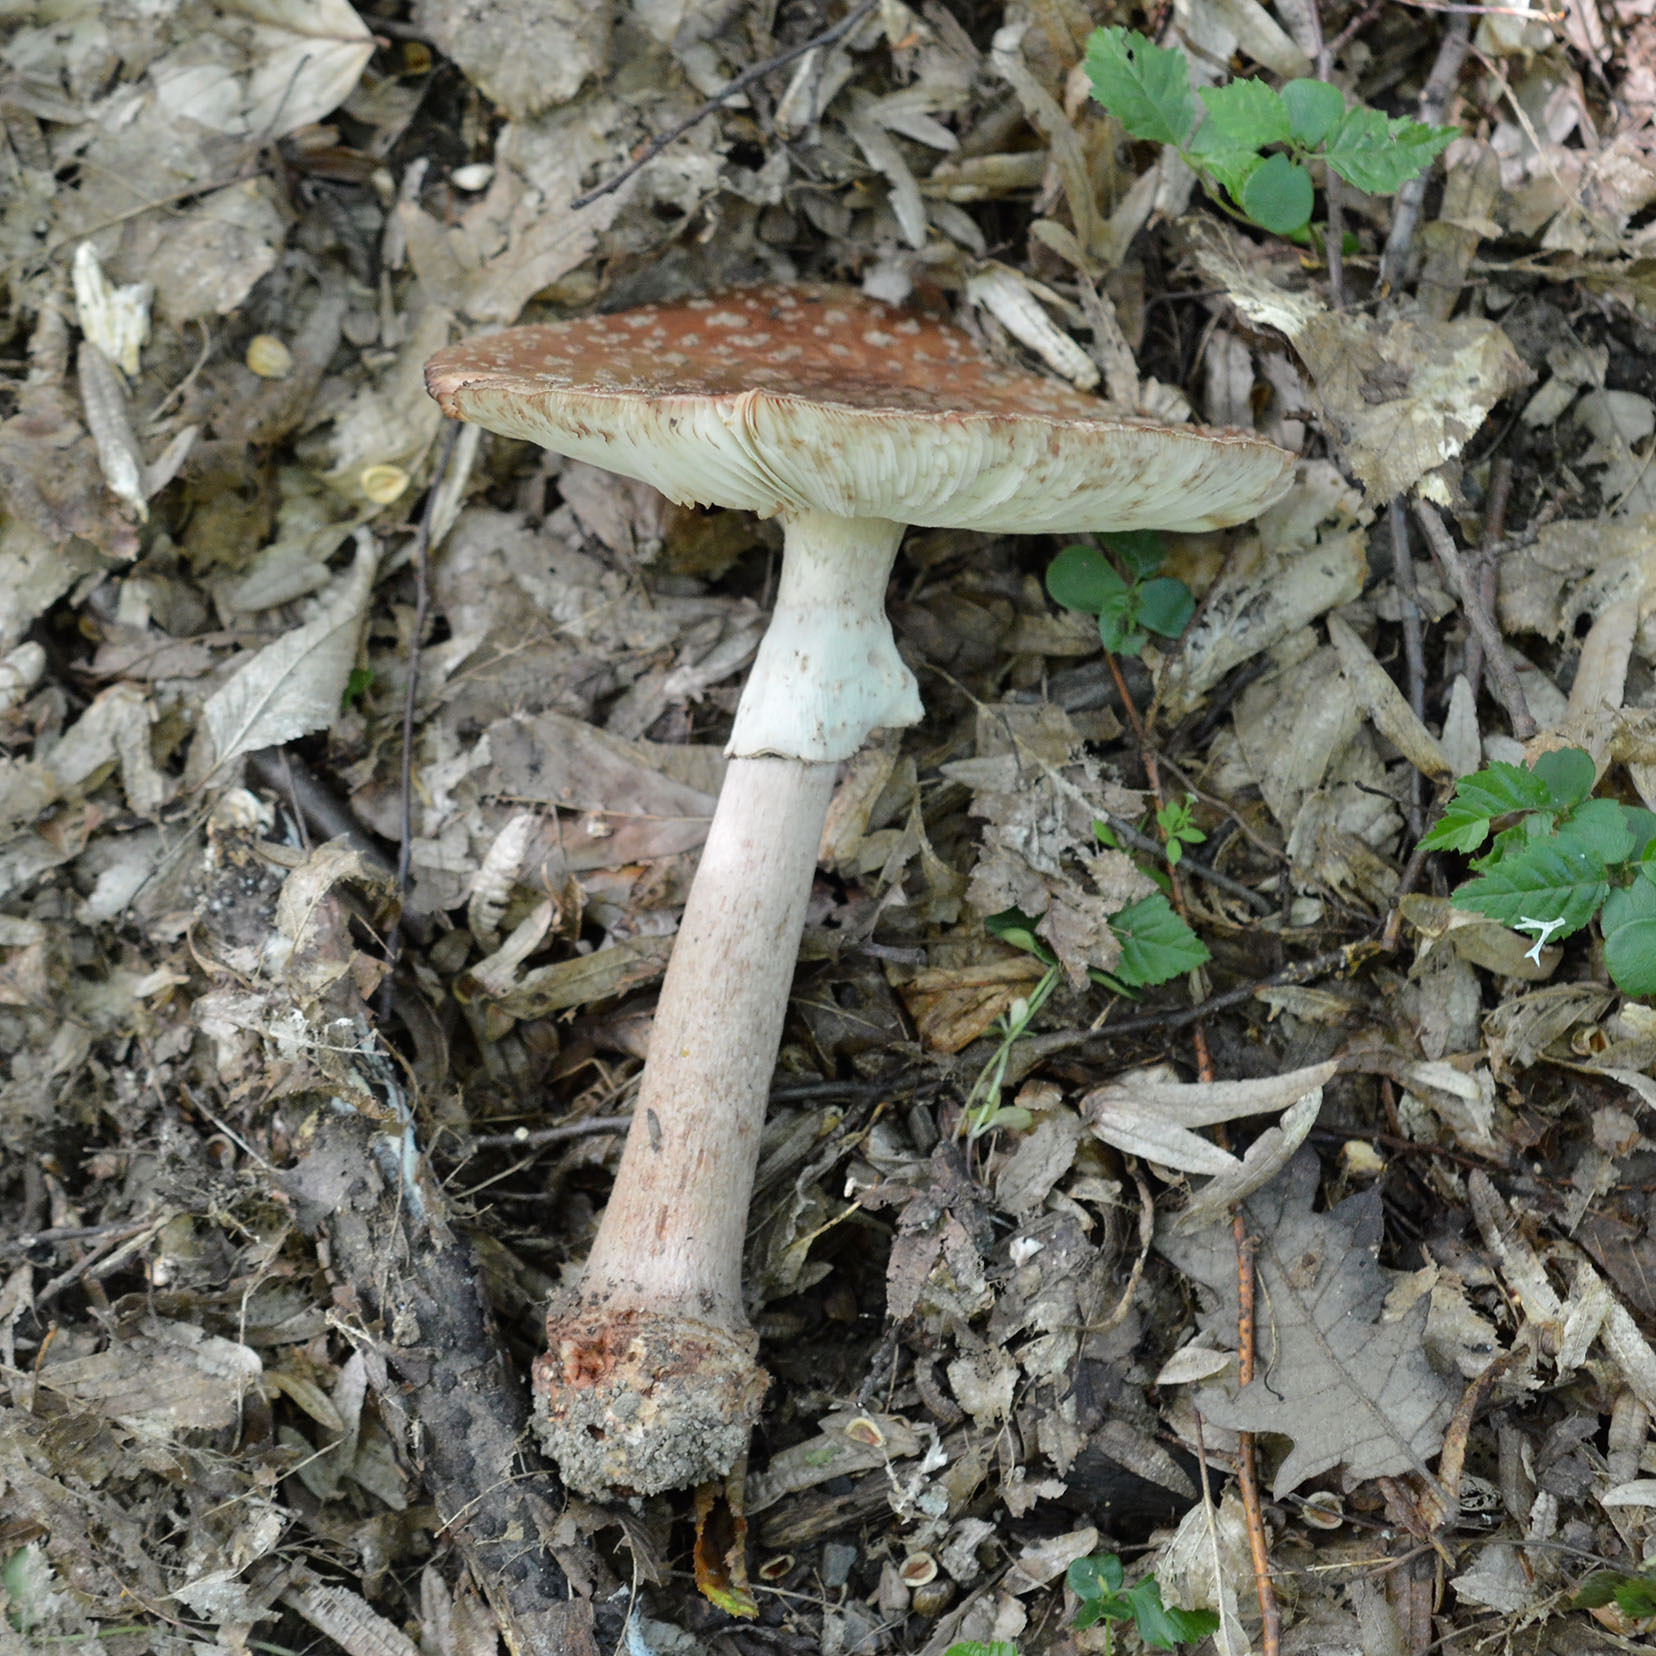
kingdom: Fungi
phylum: Basidiomycota
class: Agaricomycetes
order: Agaricales
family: Amanitaceae
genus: Amanita
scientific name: Amanita rubescens
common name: Blusher
